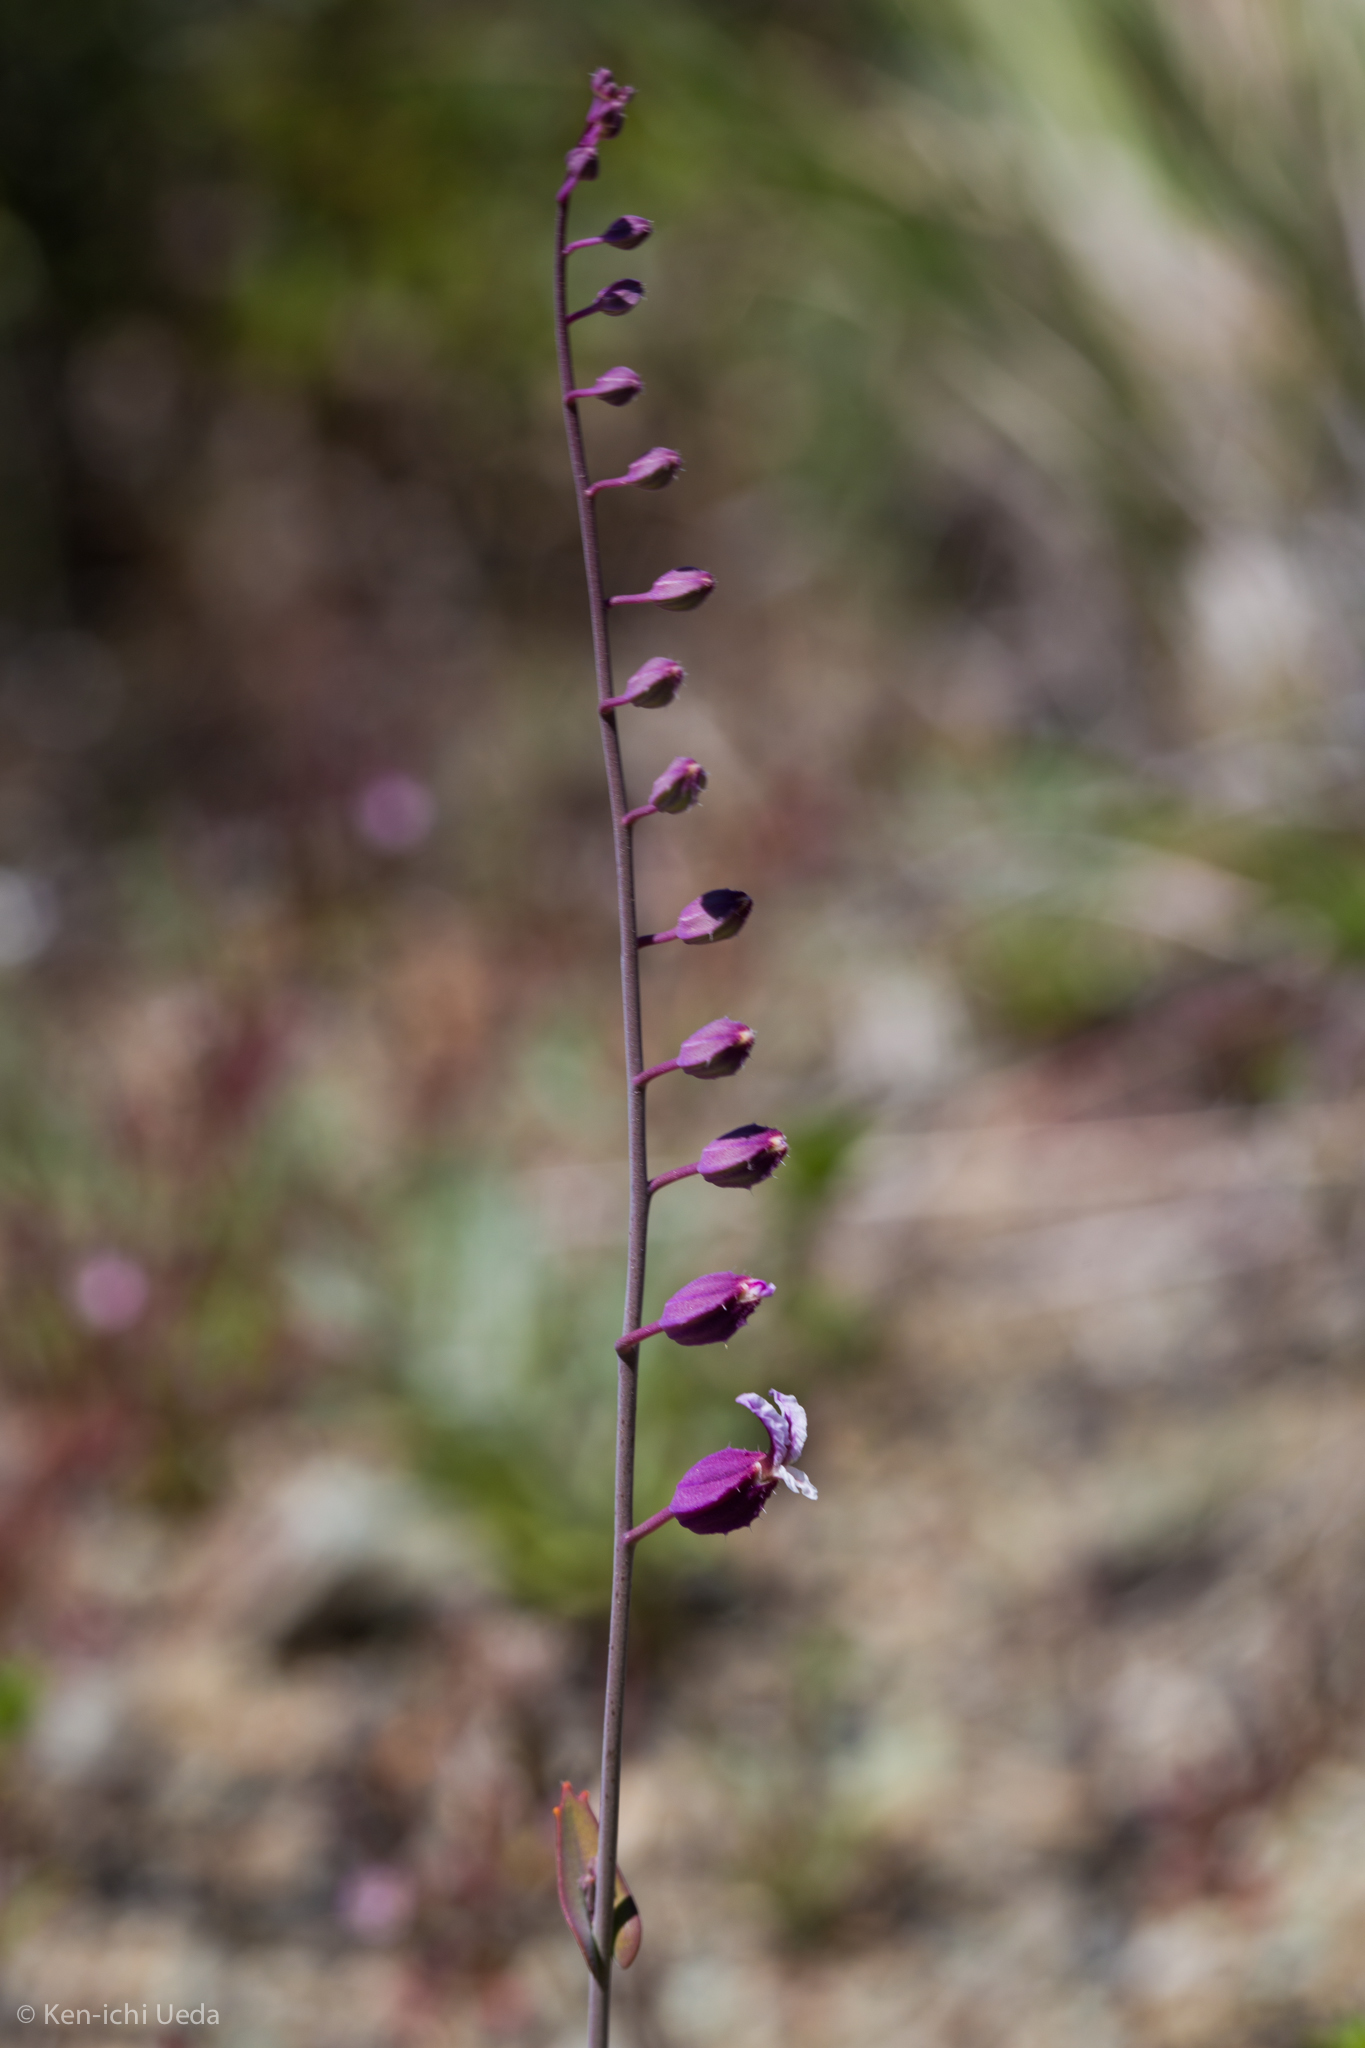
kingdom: Plantae
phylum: Tracheophyta
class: Magnoliopsida
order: Brassicales
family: Brassicaceae
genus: Streptanthus
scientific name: Streptanthus glandulosus
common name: Jewel-flower
